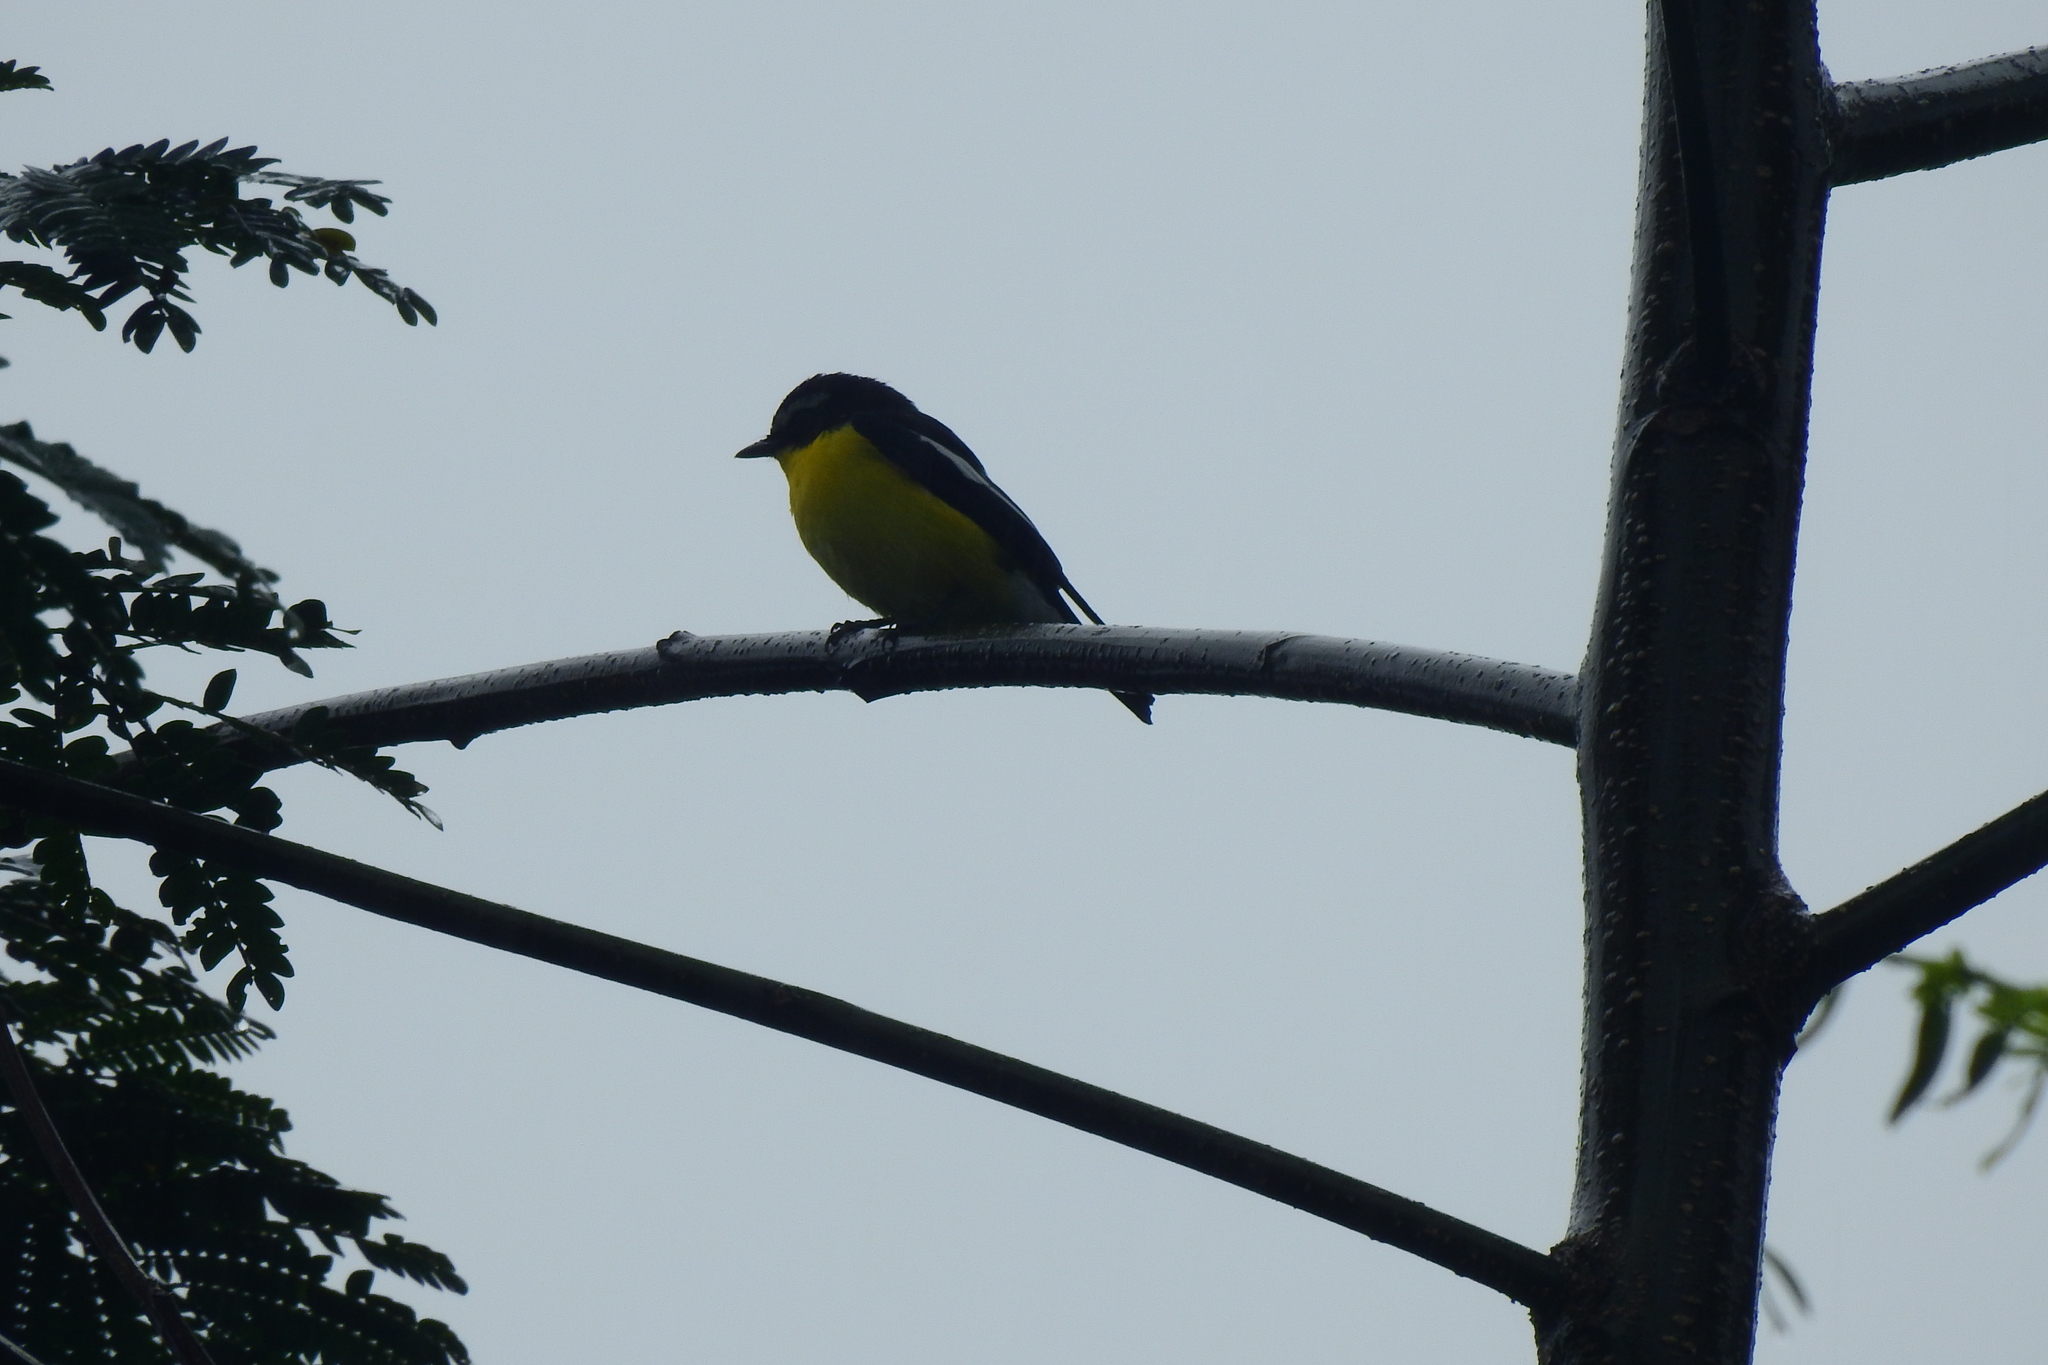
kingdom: Animalia
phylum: Chordata
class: Aves
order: Passeriformes
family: Muscicapidae
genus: Ficedula
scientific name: Ficedula zanthopygia
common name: Yellow-rumped flycatcher
